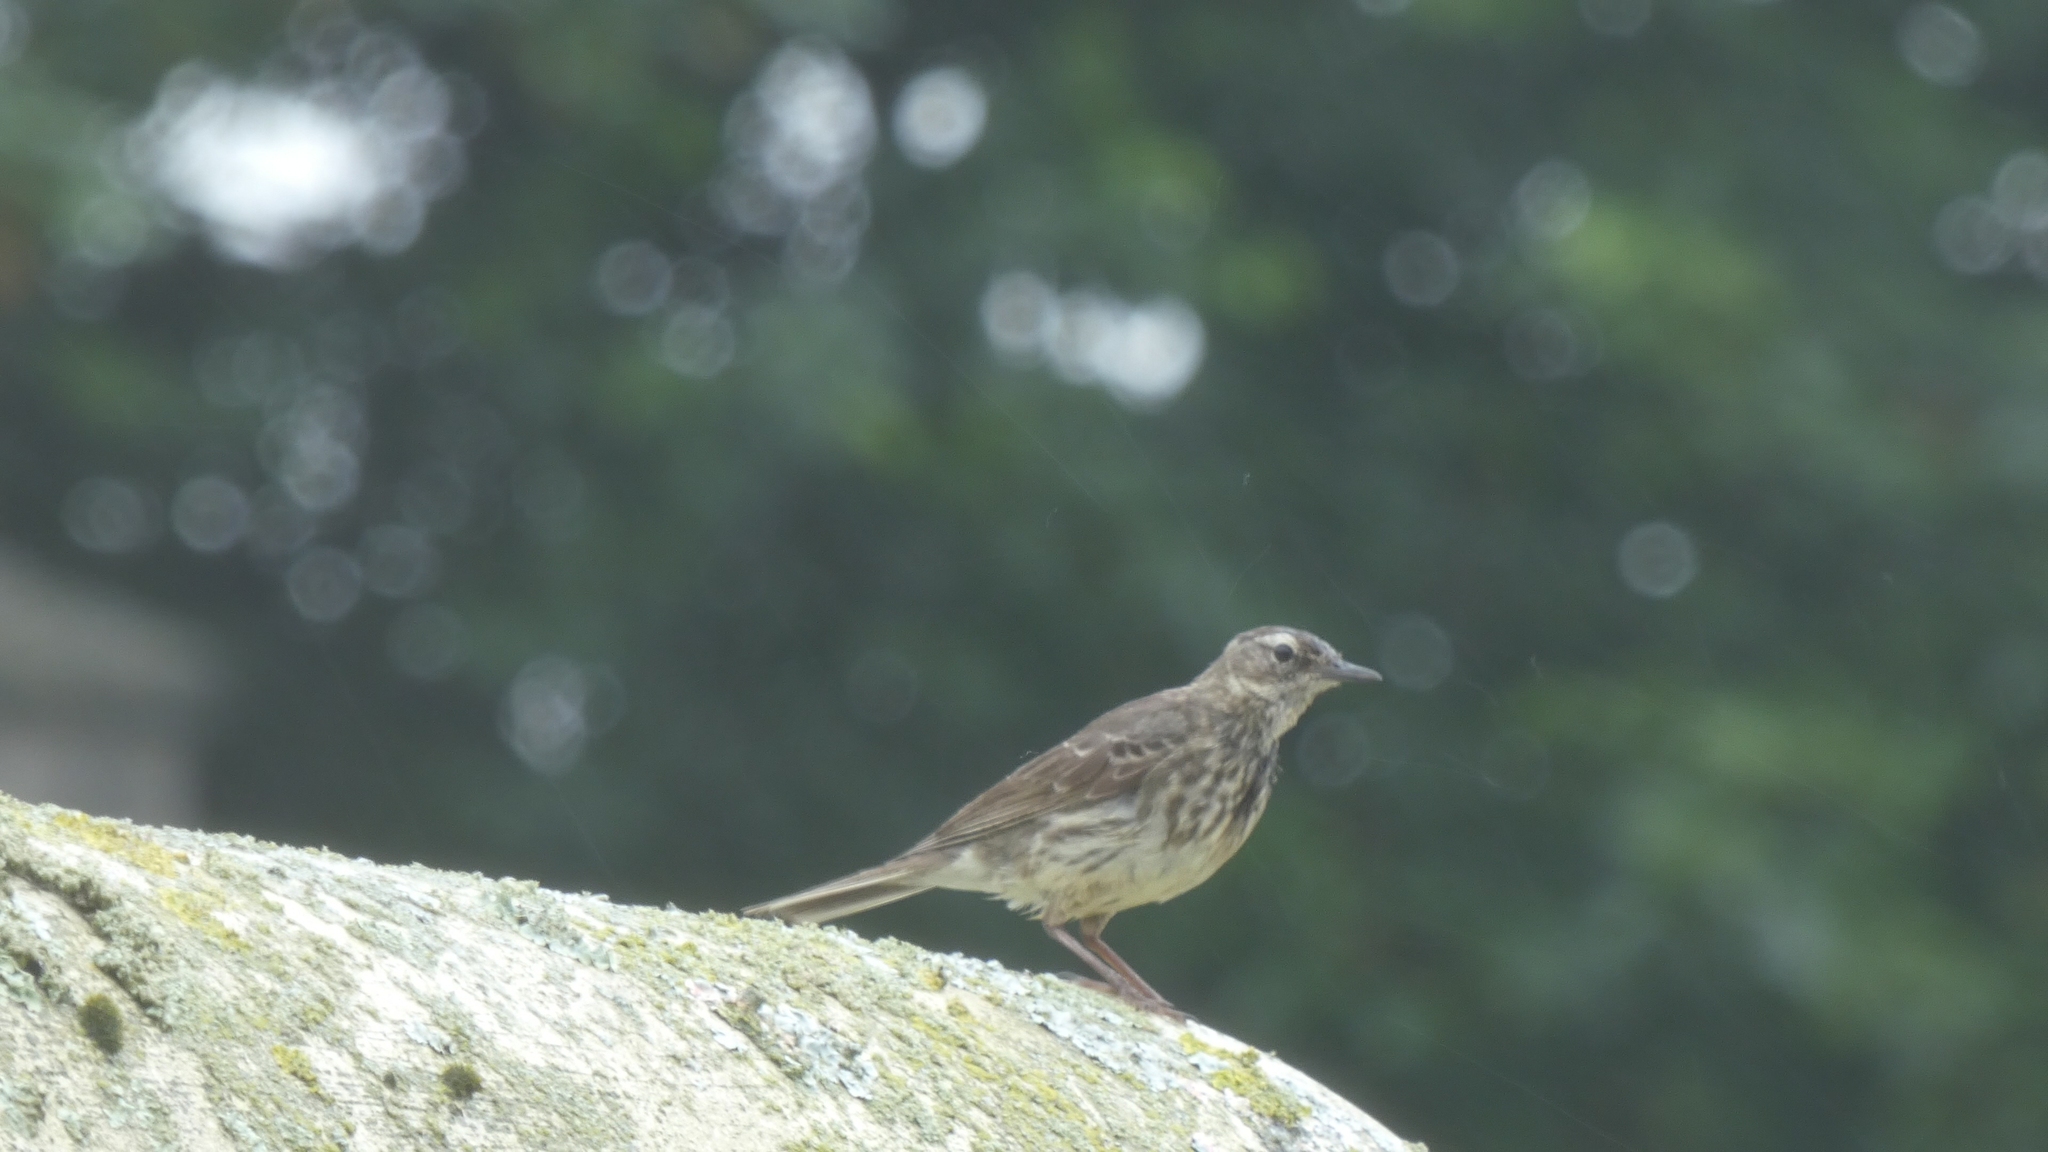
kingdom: Animalia
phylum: Chordata
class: Aves
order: Passeriformes
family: Motacillidae
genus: Anthus
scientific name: Anthus petrosus
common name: Eurasian rock pipit
